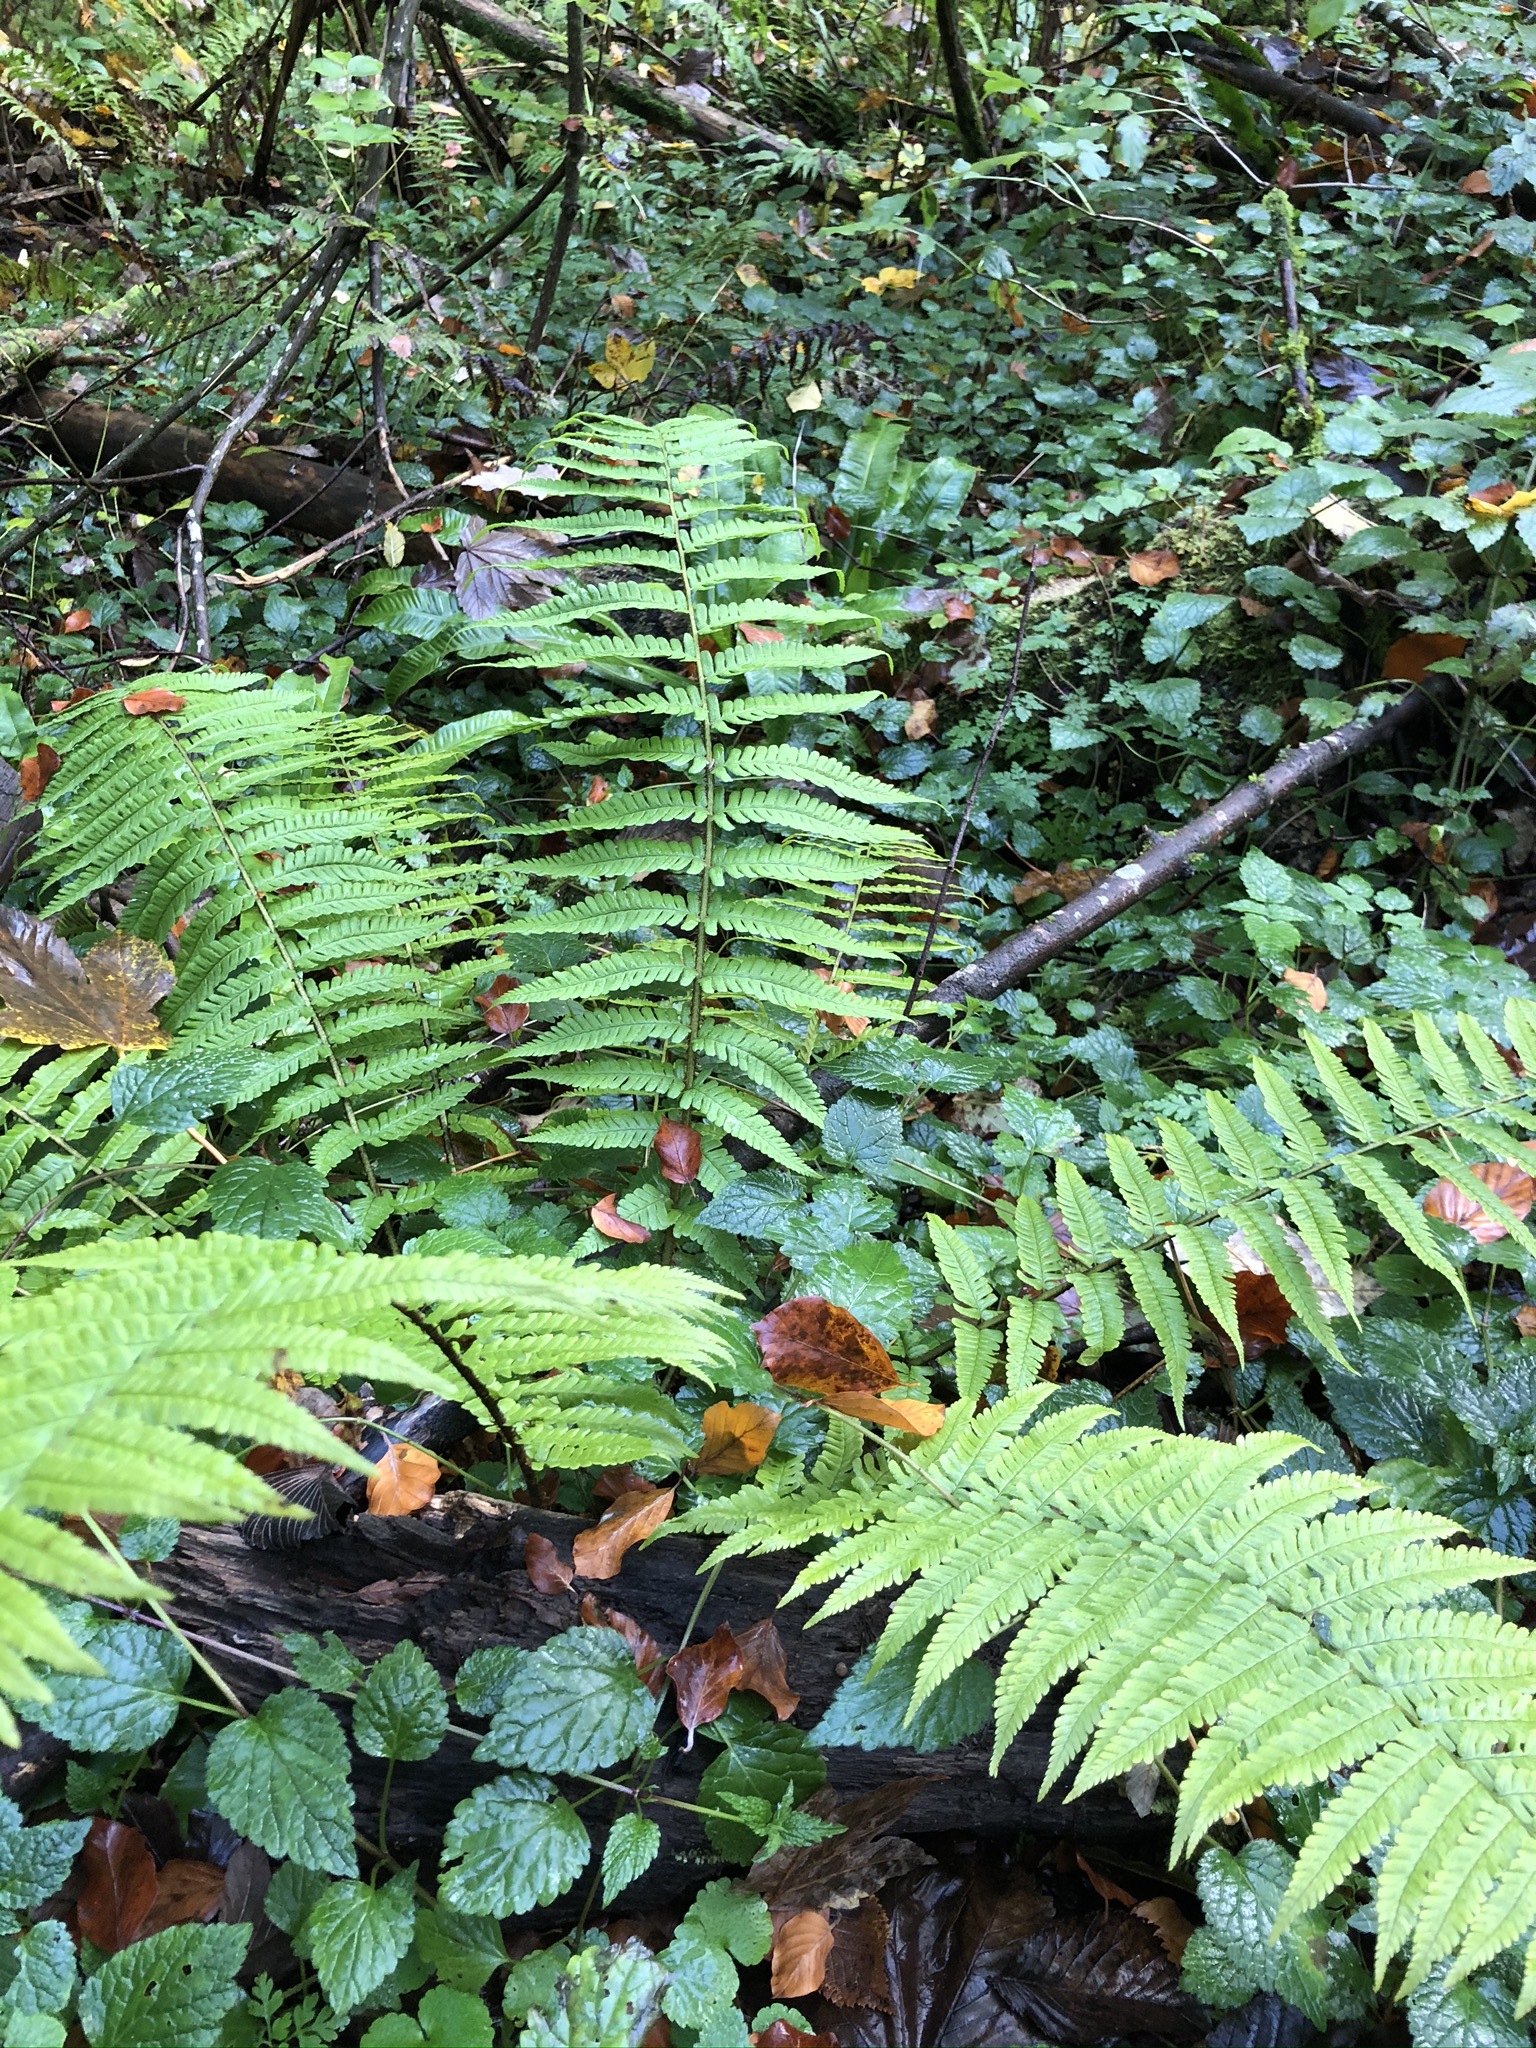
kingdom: Plantae
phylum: Tracheophyta
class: Polypodiopsida
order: Polypodiales
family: Dryopteridaceae
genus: Dryopteris
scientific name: Dryopteris borreri
